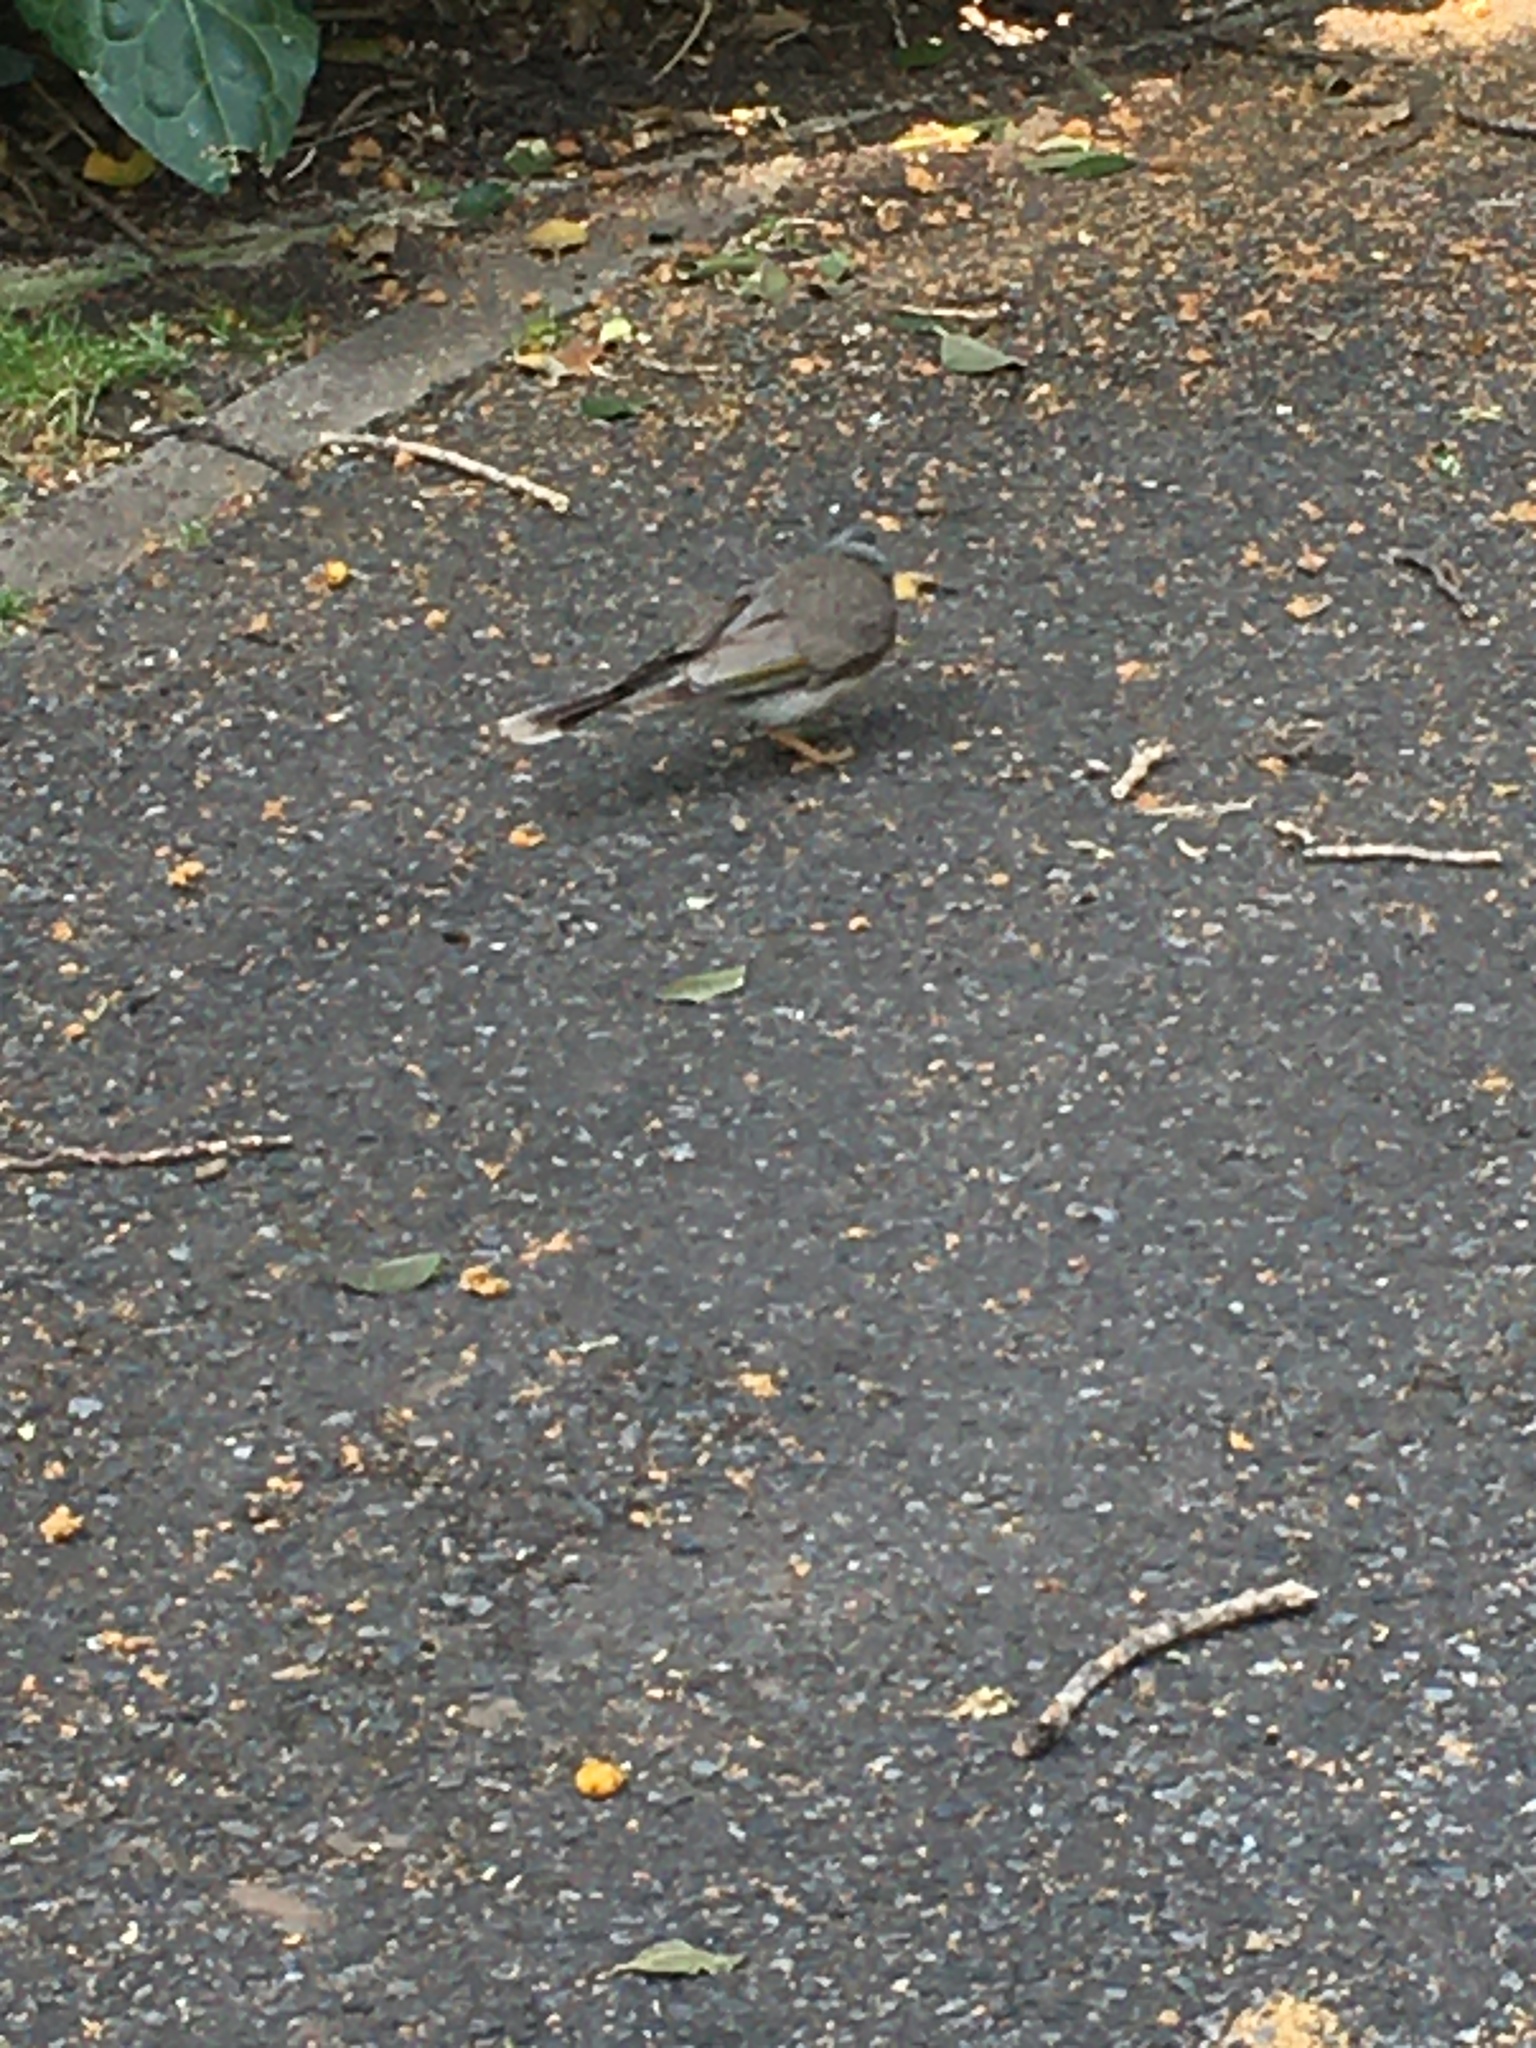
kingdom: Animalia
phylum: Chordata
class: Aves
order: Passeriformes
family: Meliphagidae
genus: Manorina
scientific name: Manorina melanocephala
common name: Noisy miner
